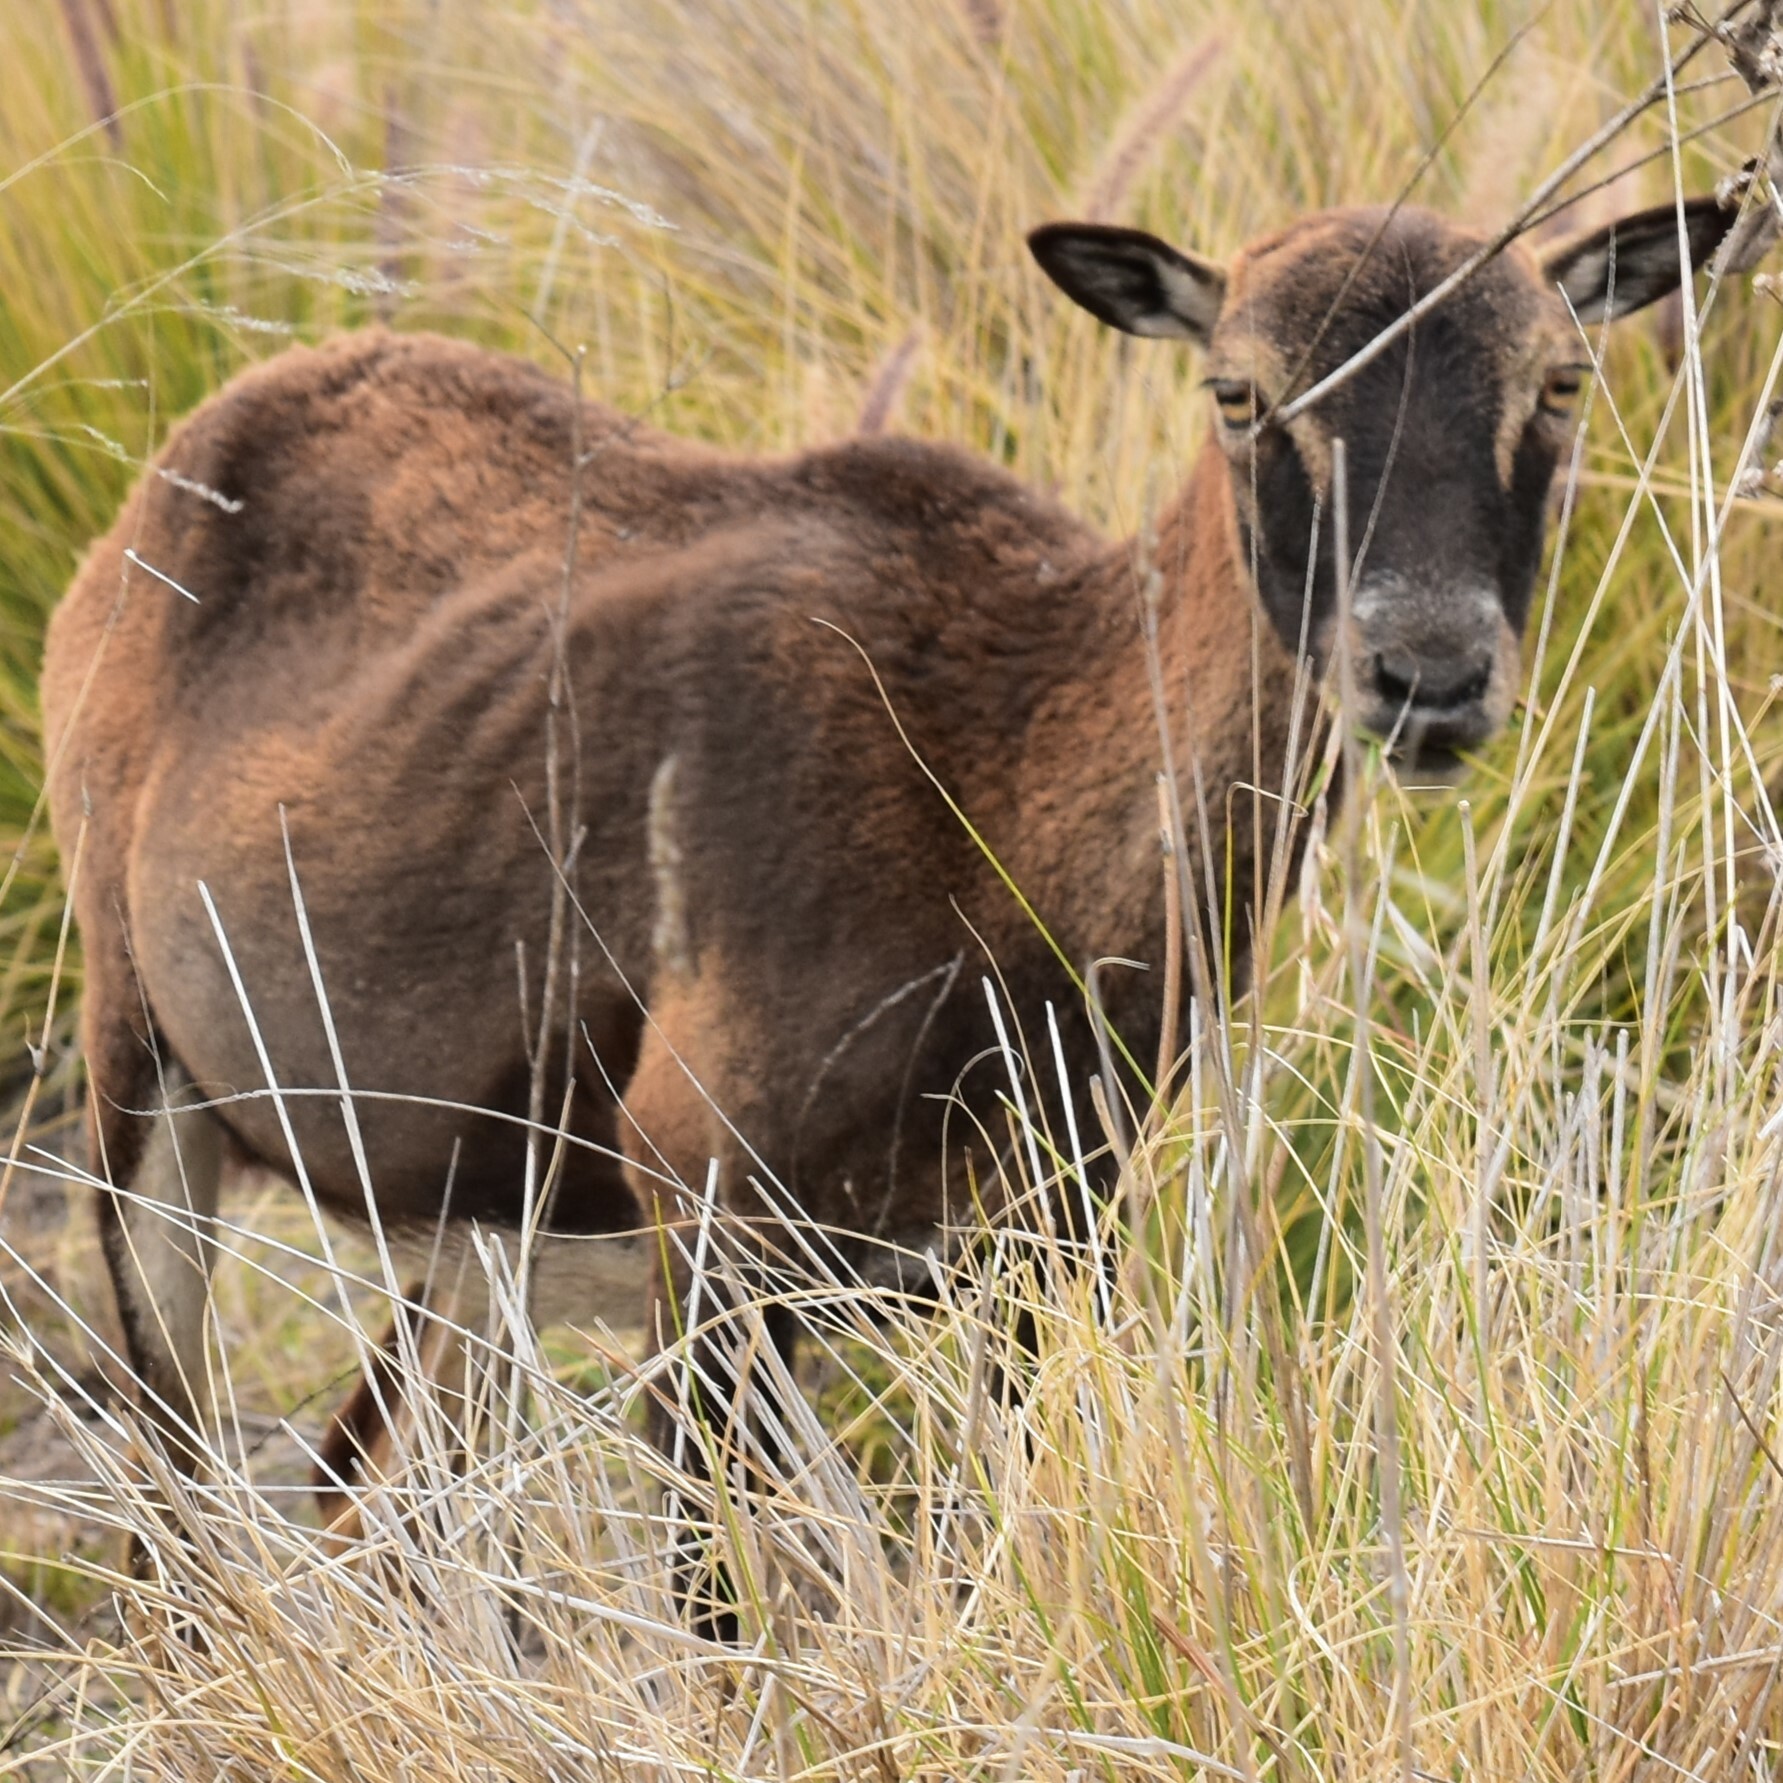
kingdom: Animalia
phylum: Chordata
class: Mammalia
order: Artiodactyla
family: Bovidae
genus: Ovis
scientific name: Ovis aries
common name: Domestic sheep
